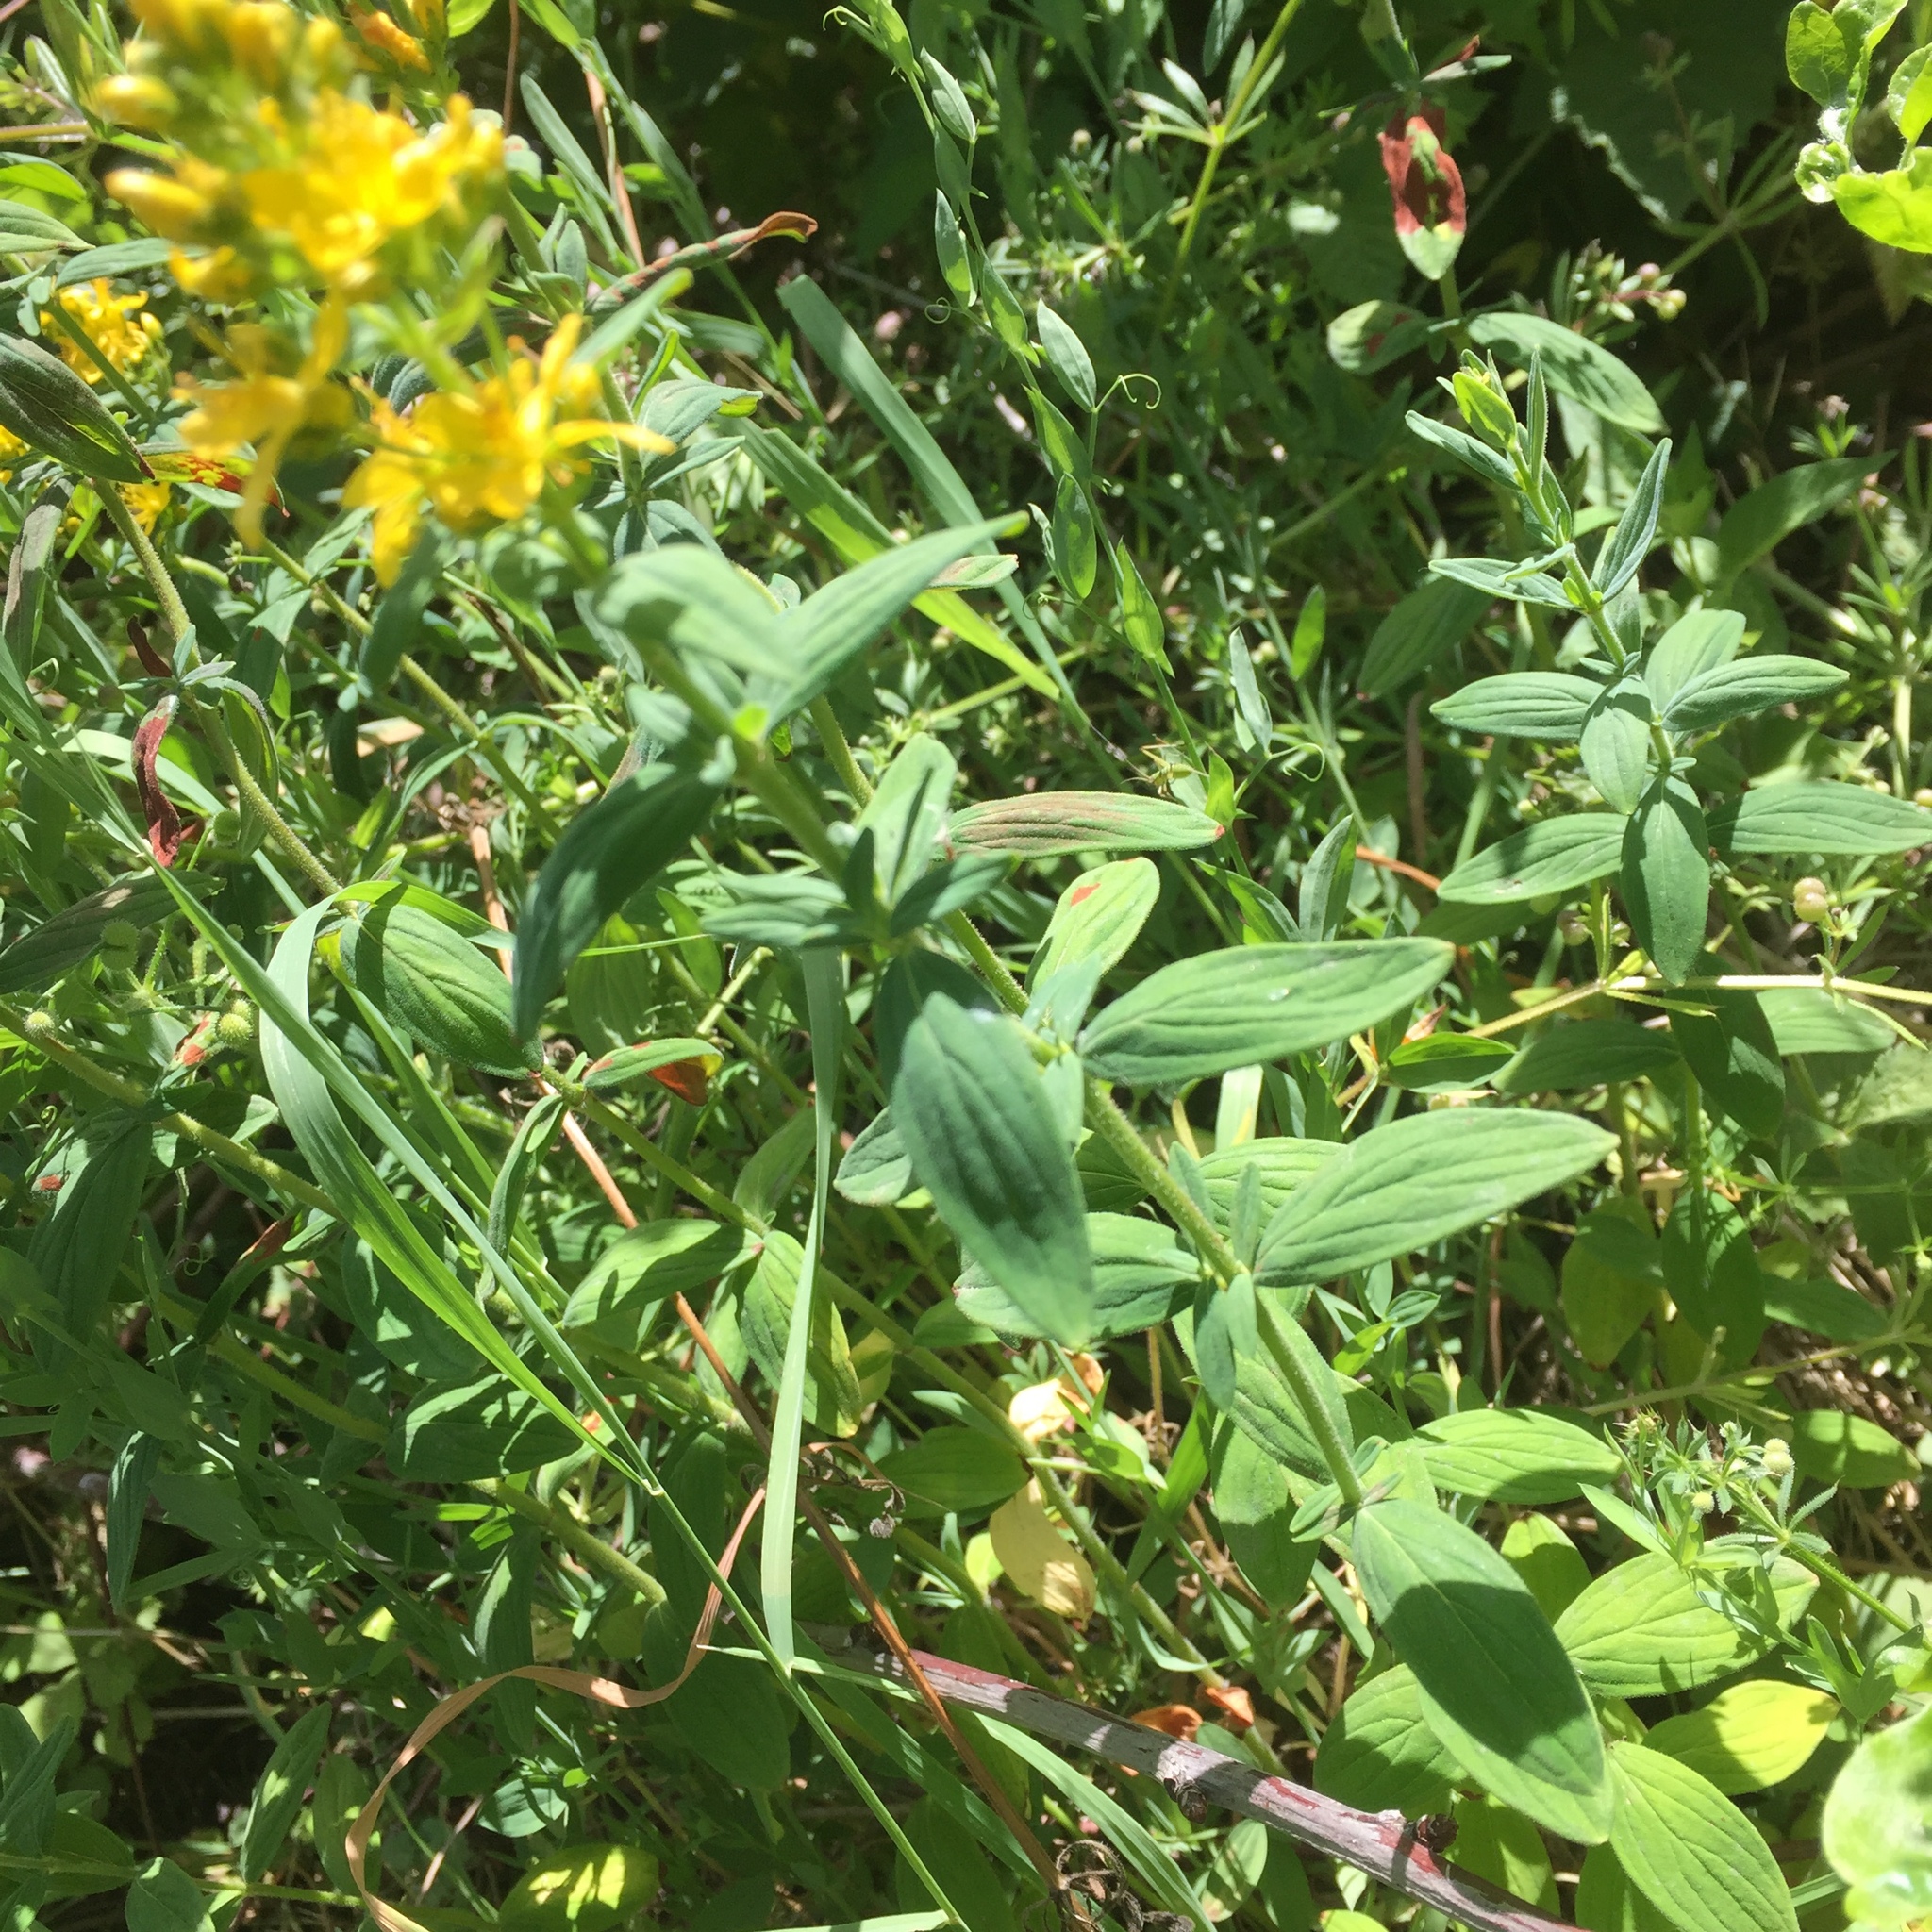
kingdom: Plantae
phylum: Tracheophyta
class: Magnoliopsida
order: Malpighiales
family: Hypericaceae
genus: Hypericum
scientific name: Hypericum hirsutum
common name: Hairy st. john's-wort
